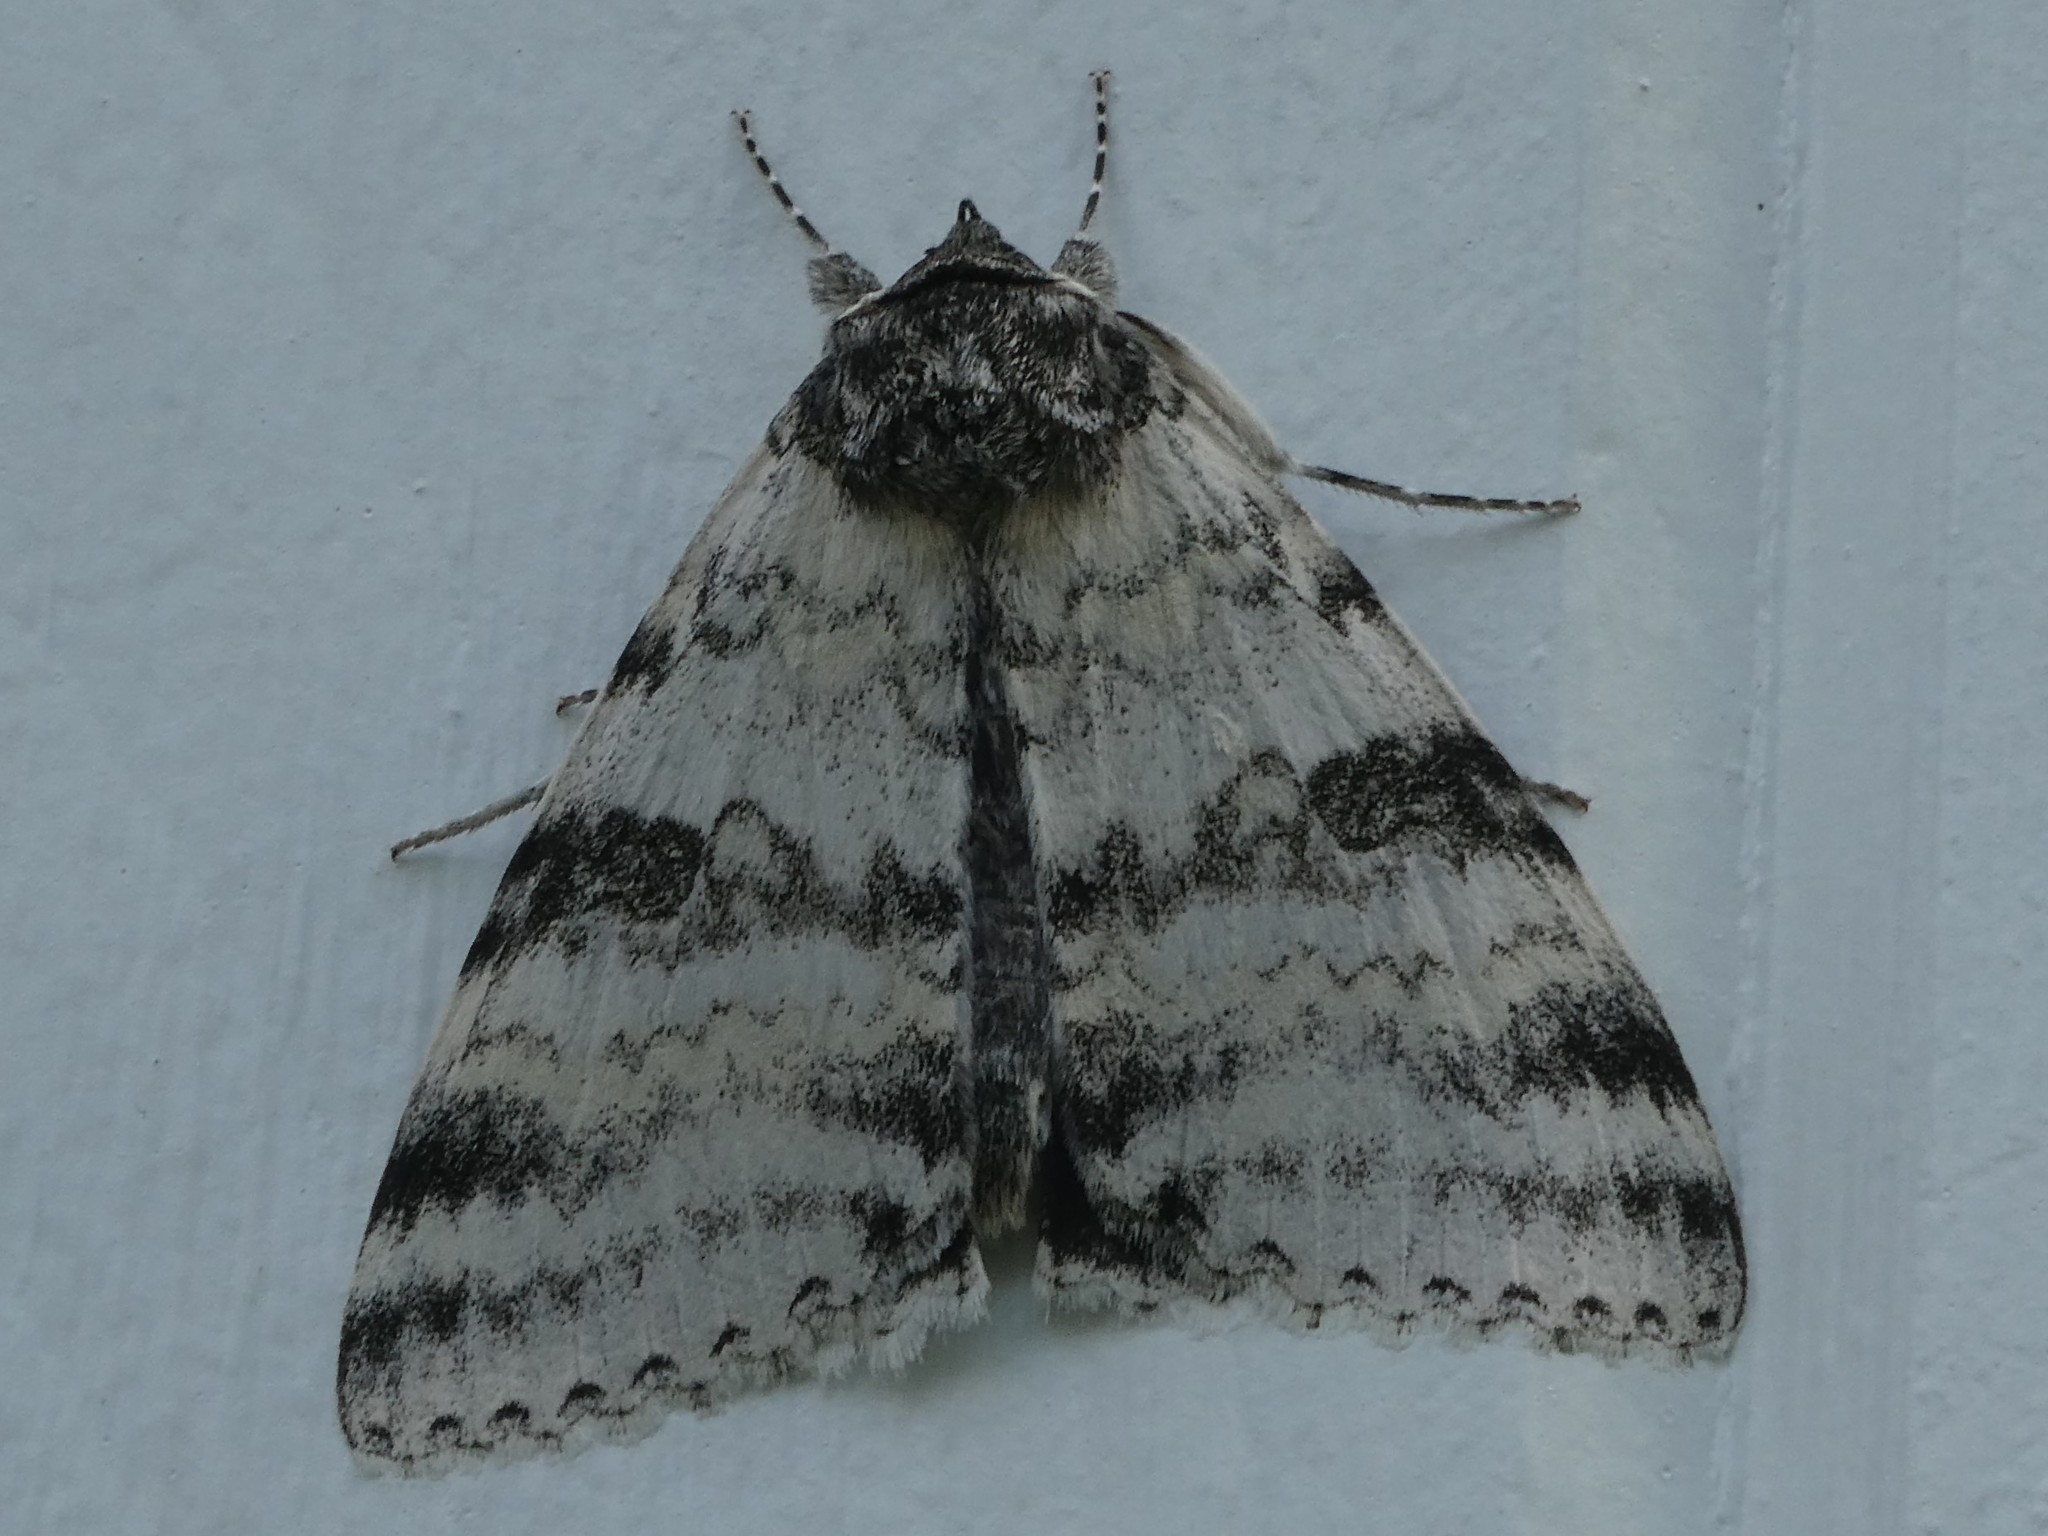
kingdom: Animalia
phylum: Arthropoda
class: Insecta
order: Lepidoptera
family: Erebidae
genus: Catocala
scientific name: Catocala relicta
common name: White underwing
